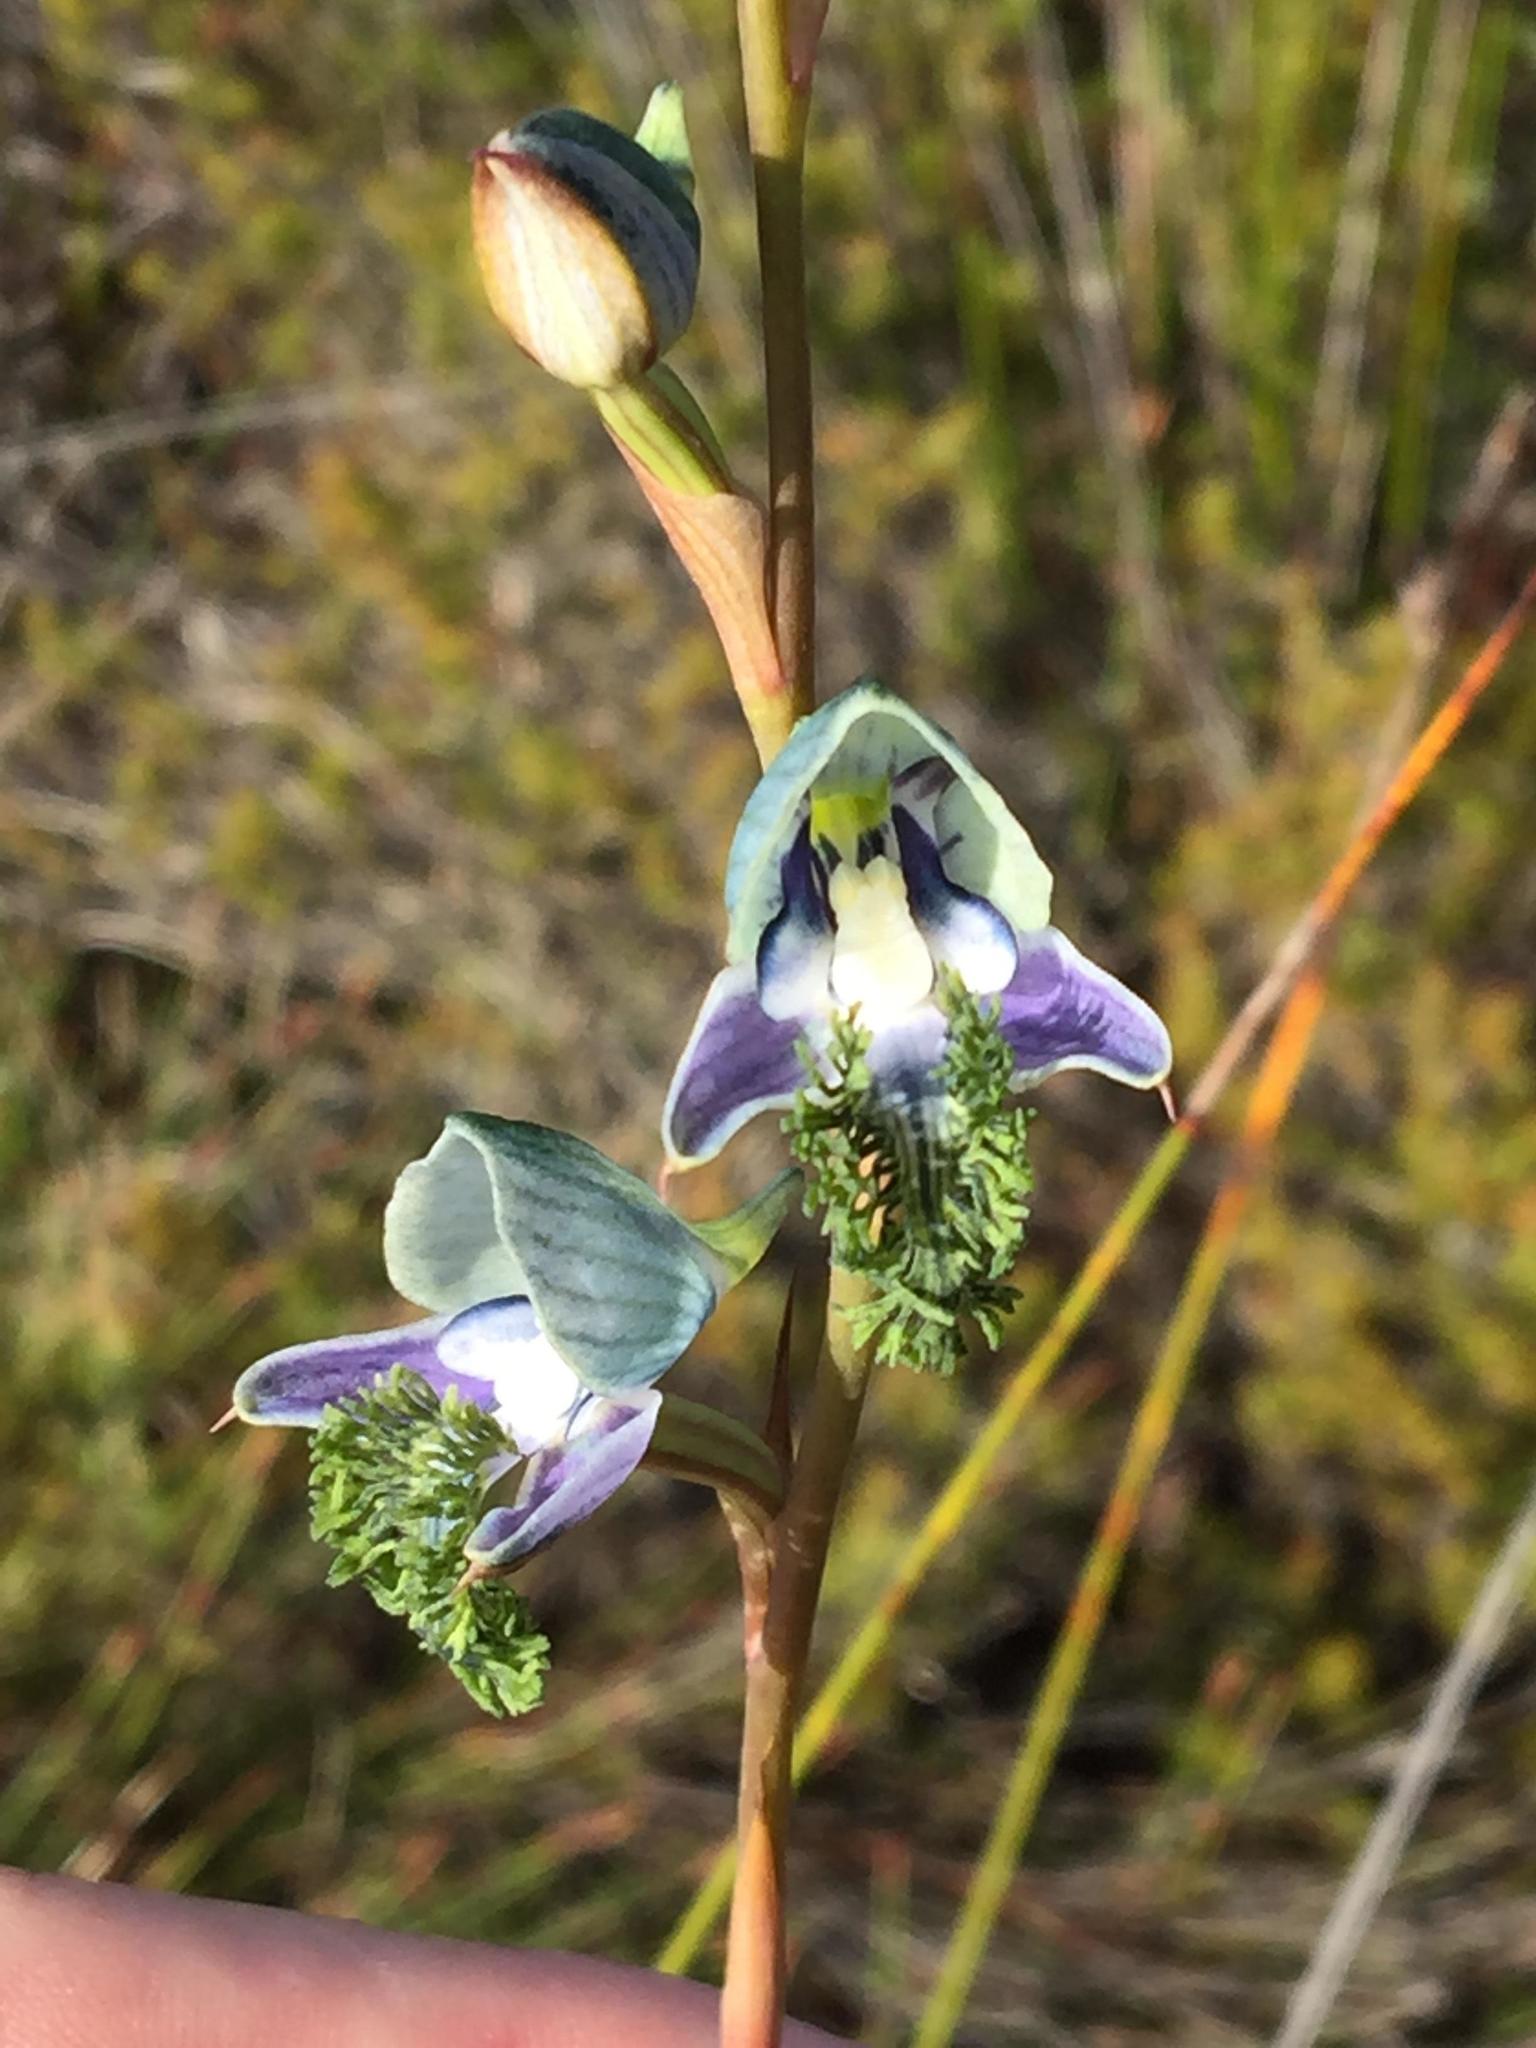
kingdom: Plantae
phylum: Tracheophyta
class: Liliopsida
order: Asparagales
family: Orchidaceae
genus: Disa
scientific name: Disa lugens
